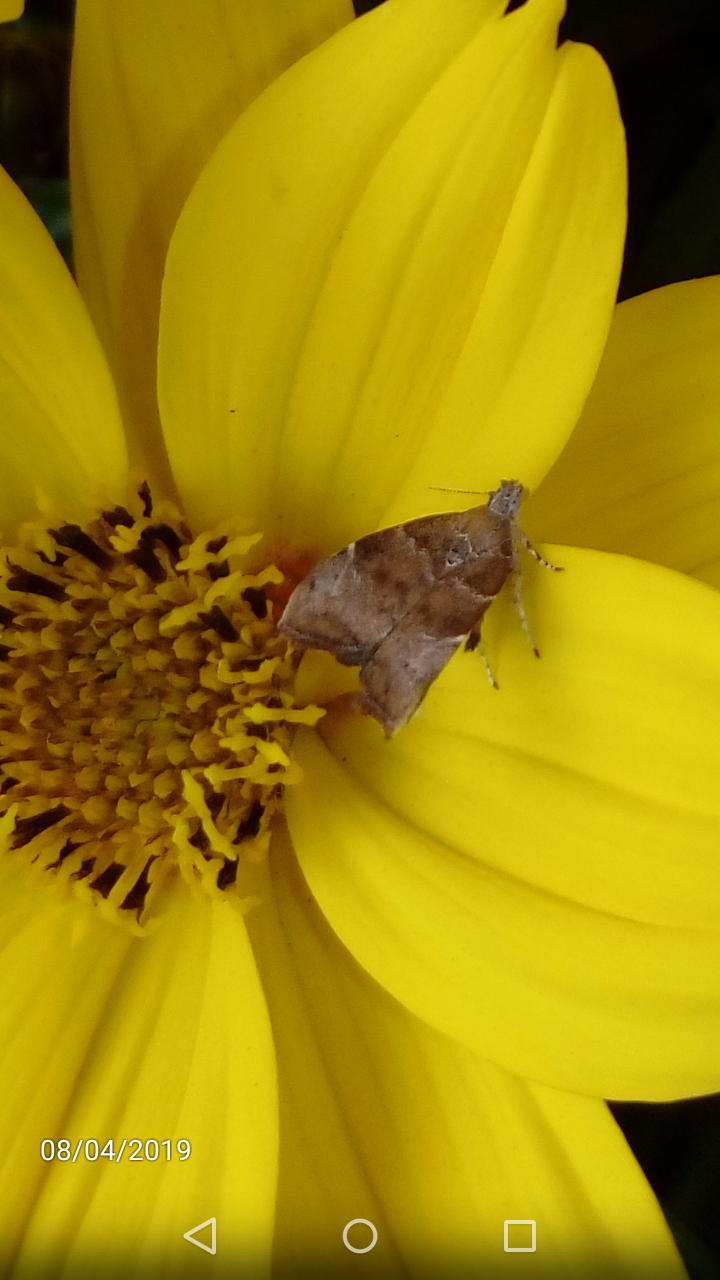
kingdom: Animalia
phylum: Arthropoda
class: Insecta
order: Lepidoptera
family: Choreutidae
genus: Anthophila
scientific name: Anthophila nemorana
